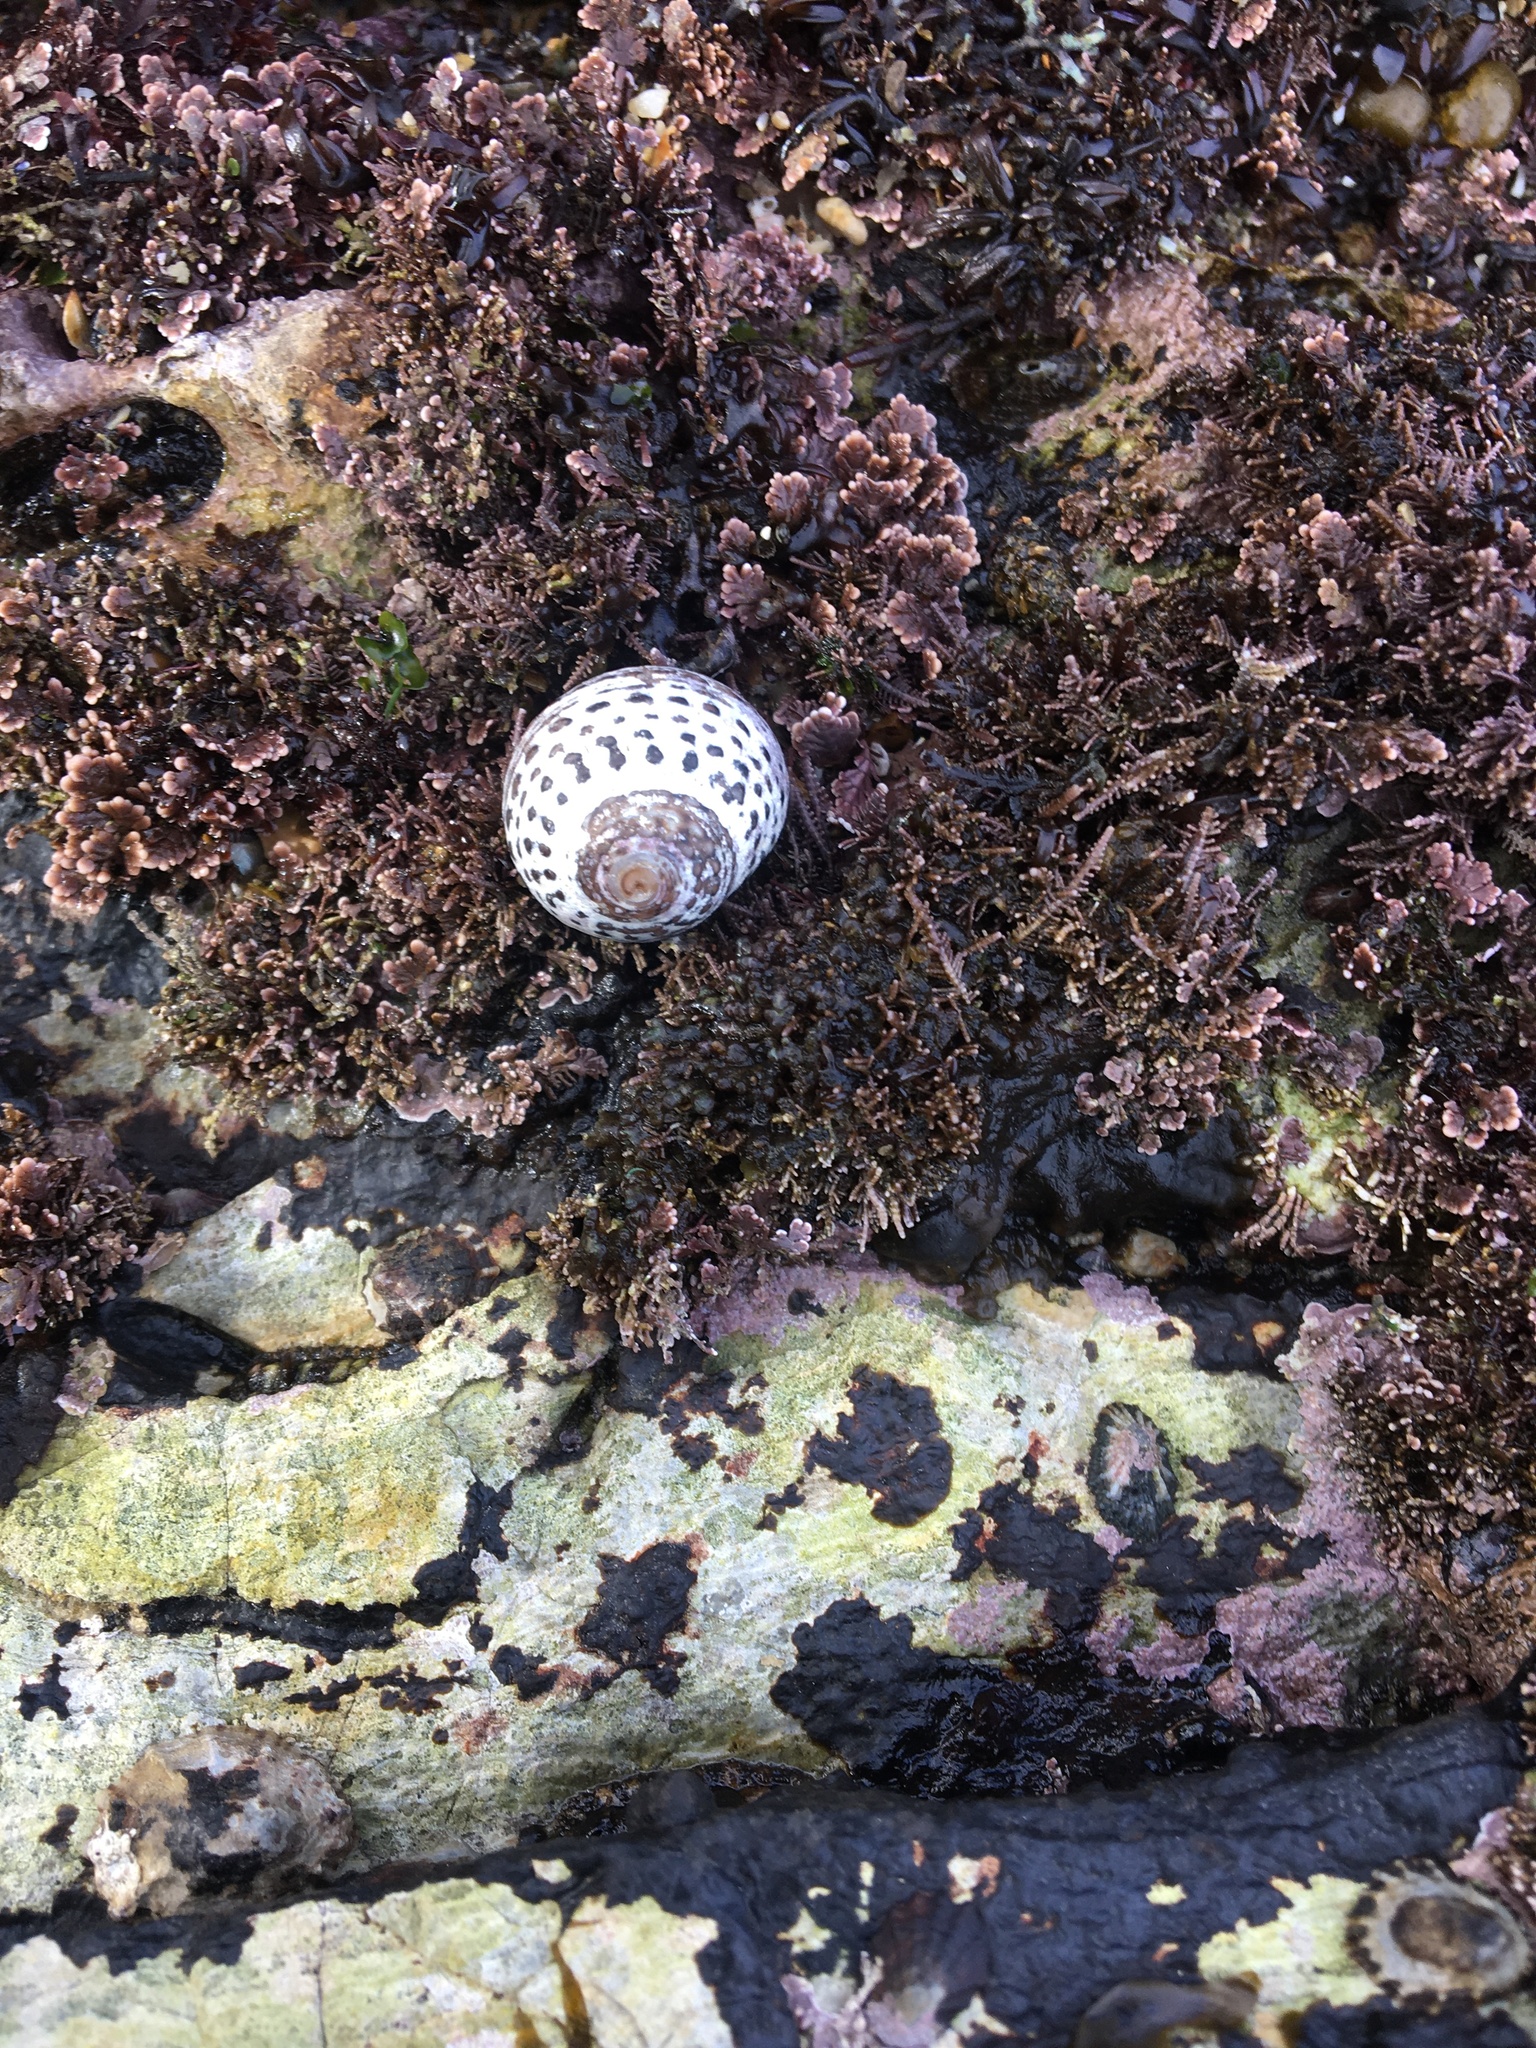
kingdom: Animalia
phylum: Mollusca
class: Gastropoda
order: Trochida
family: Tegulidae
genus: Tegula
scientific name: Tegula eiseni
